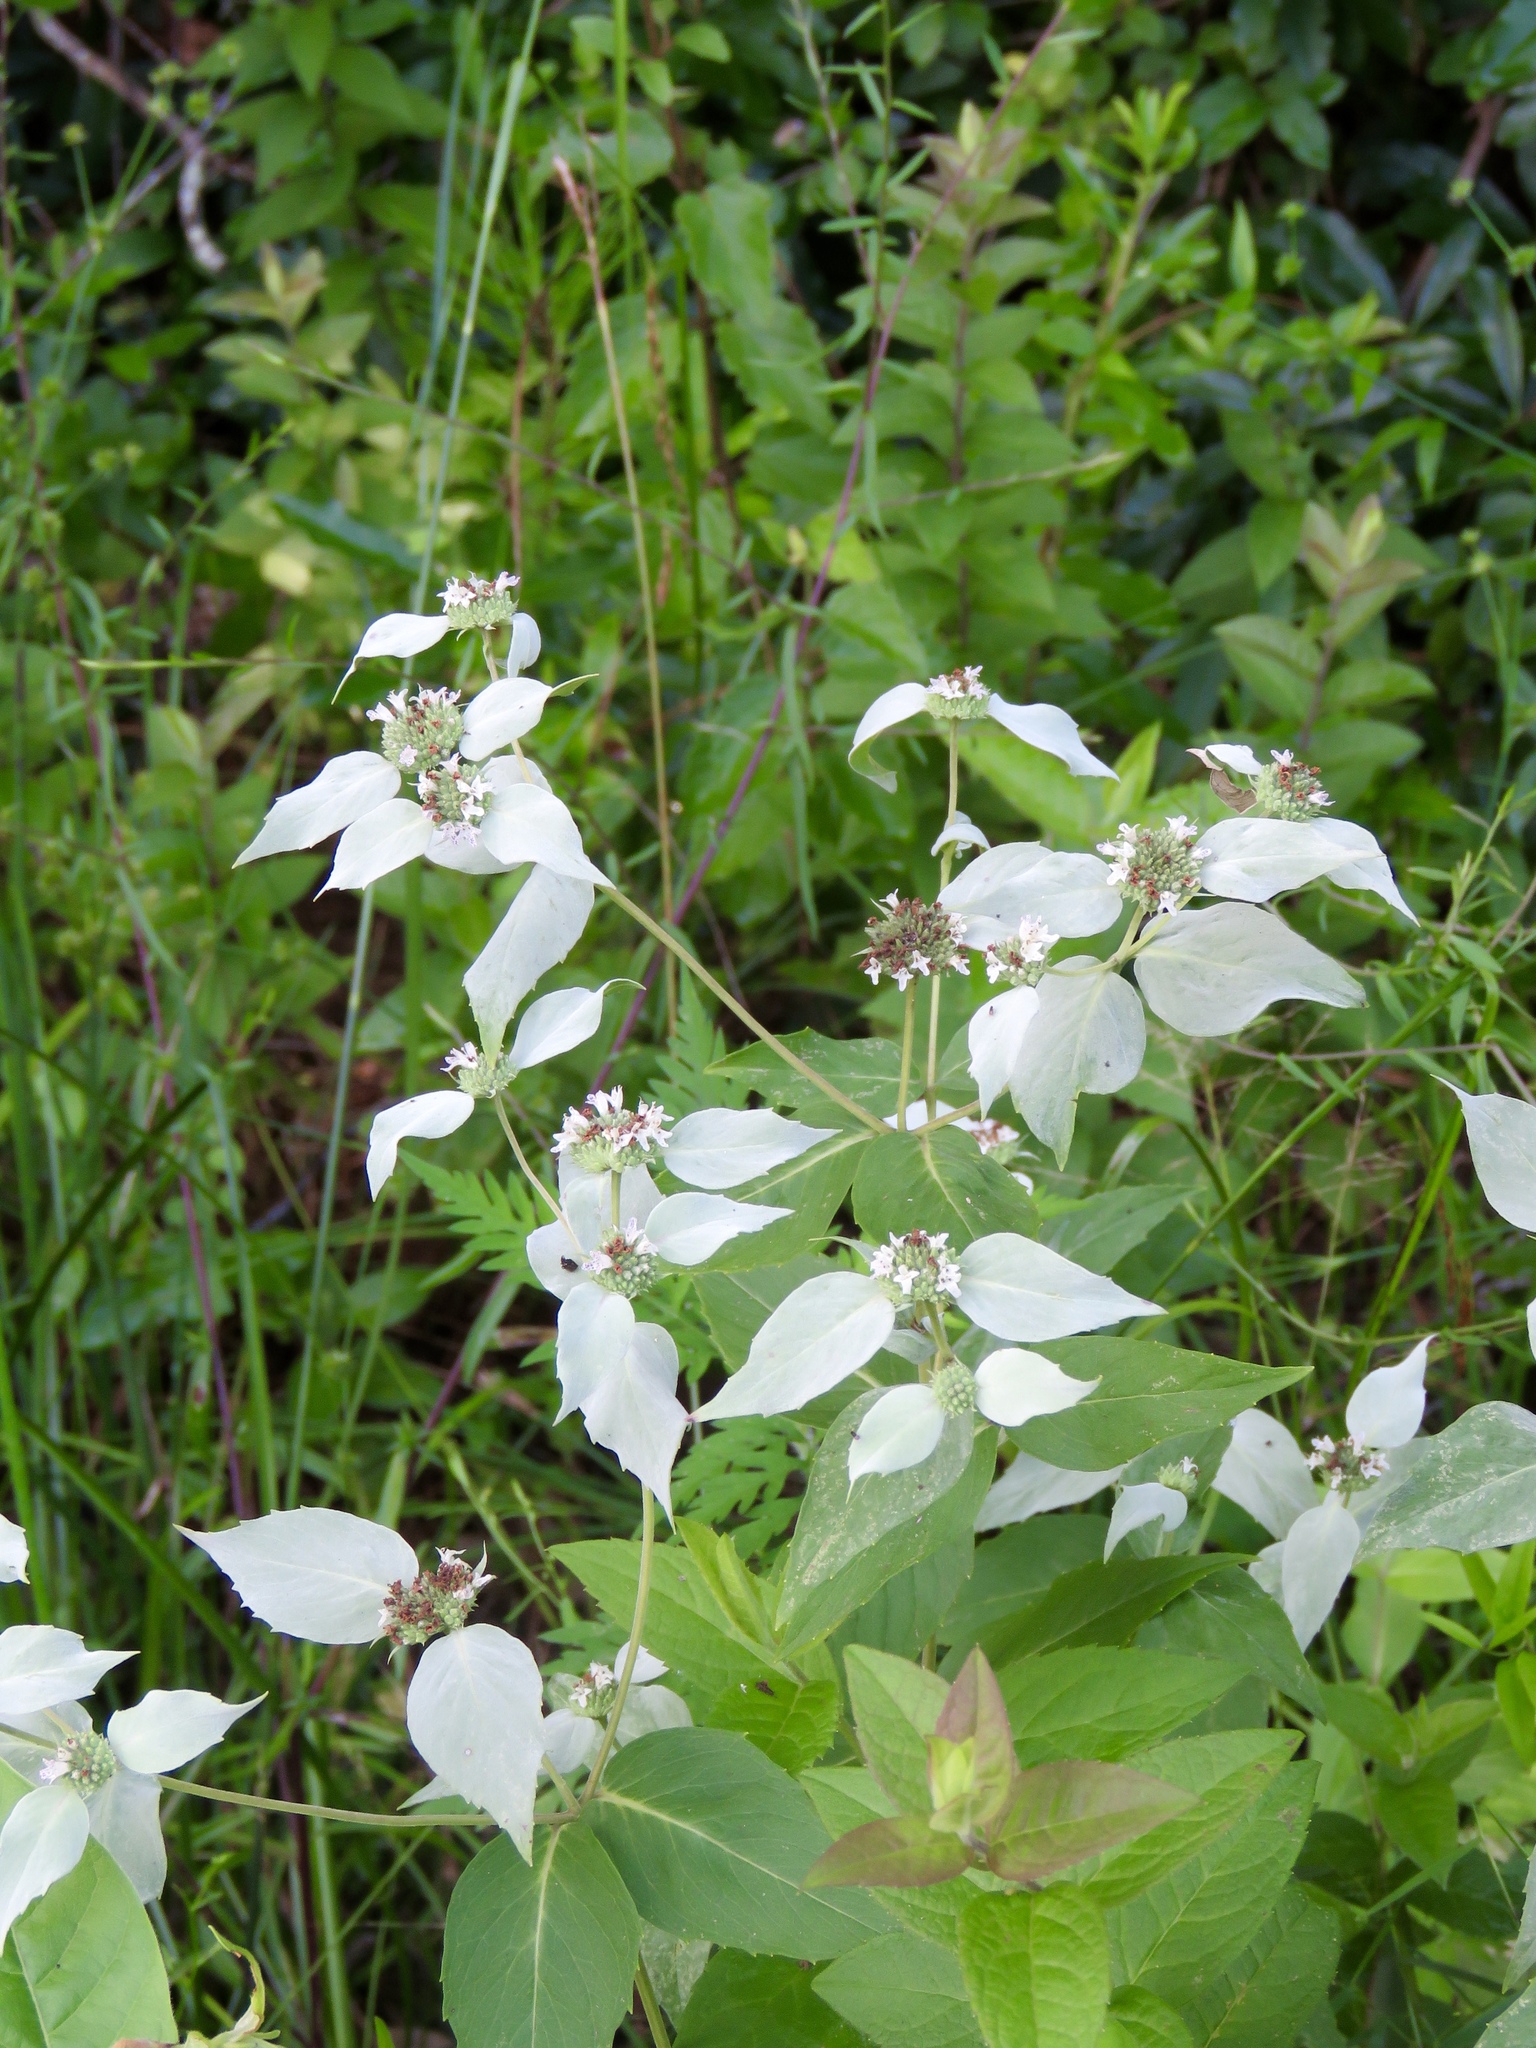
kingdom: Plantae
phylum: Tracheophyta
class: Magnoliopsida
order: Lamiales
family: Lamiaceae
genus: Pycnanthemum
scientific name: Pycnanthemum muticum
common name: Blunt mountain-mint
